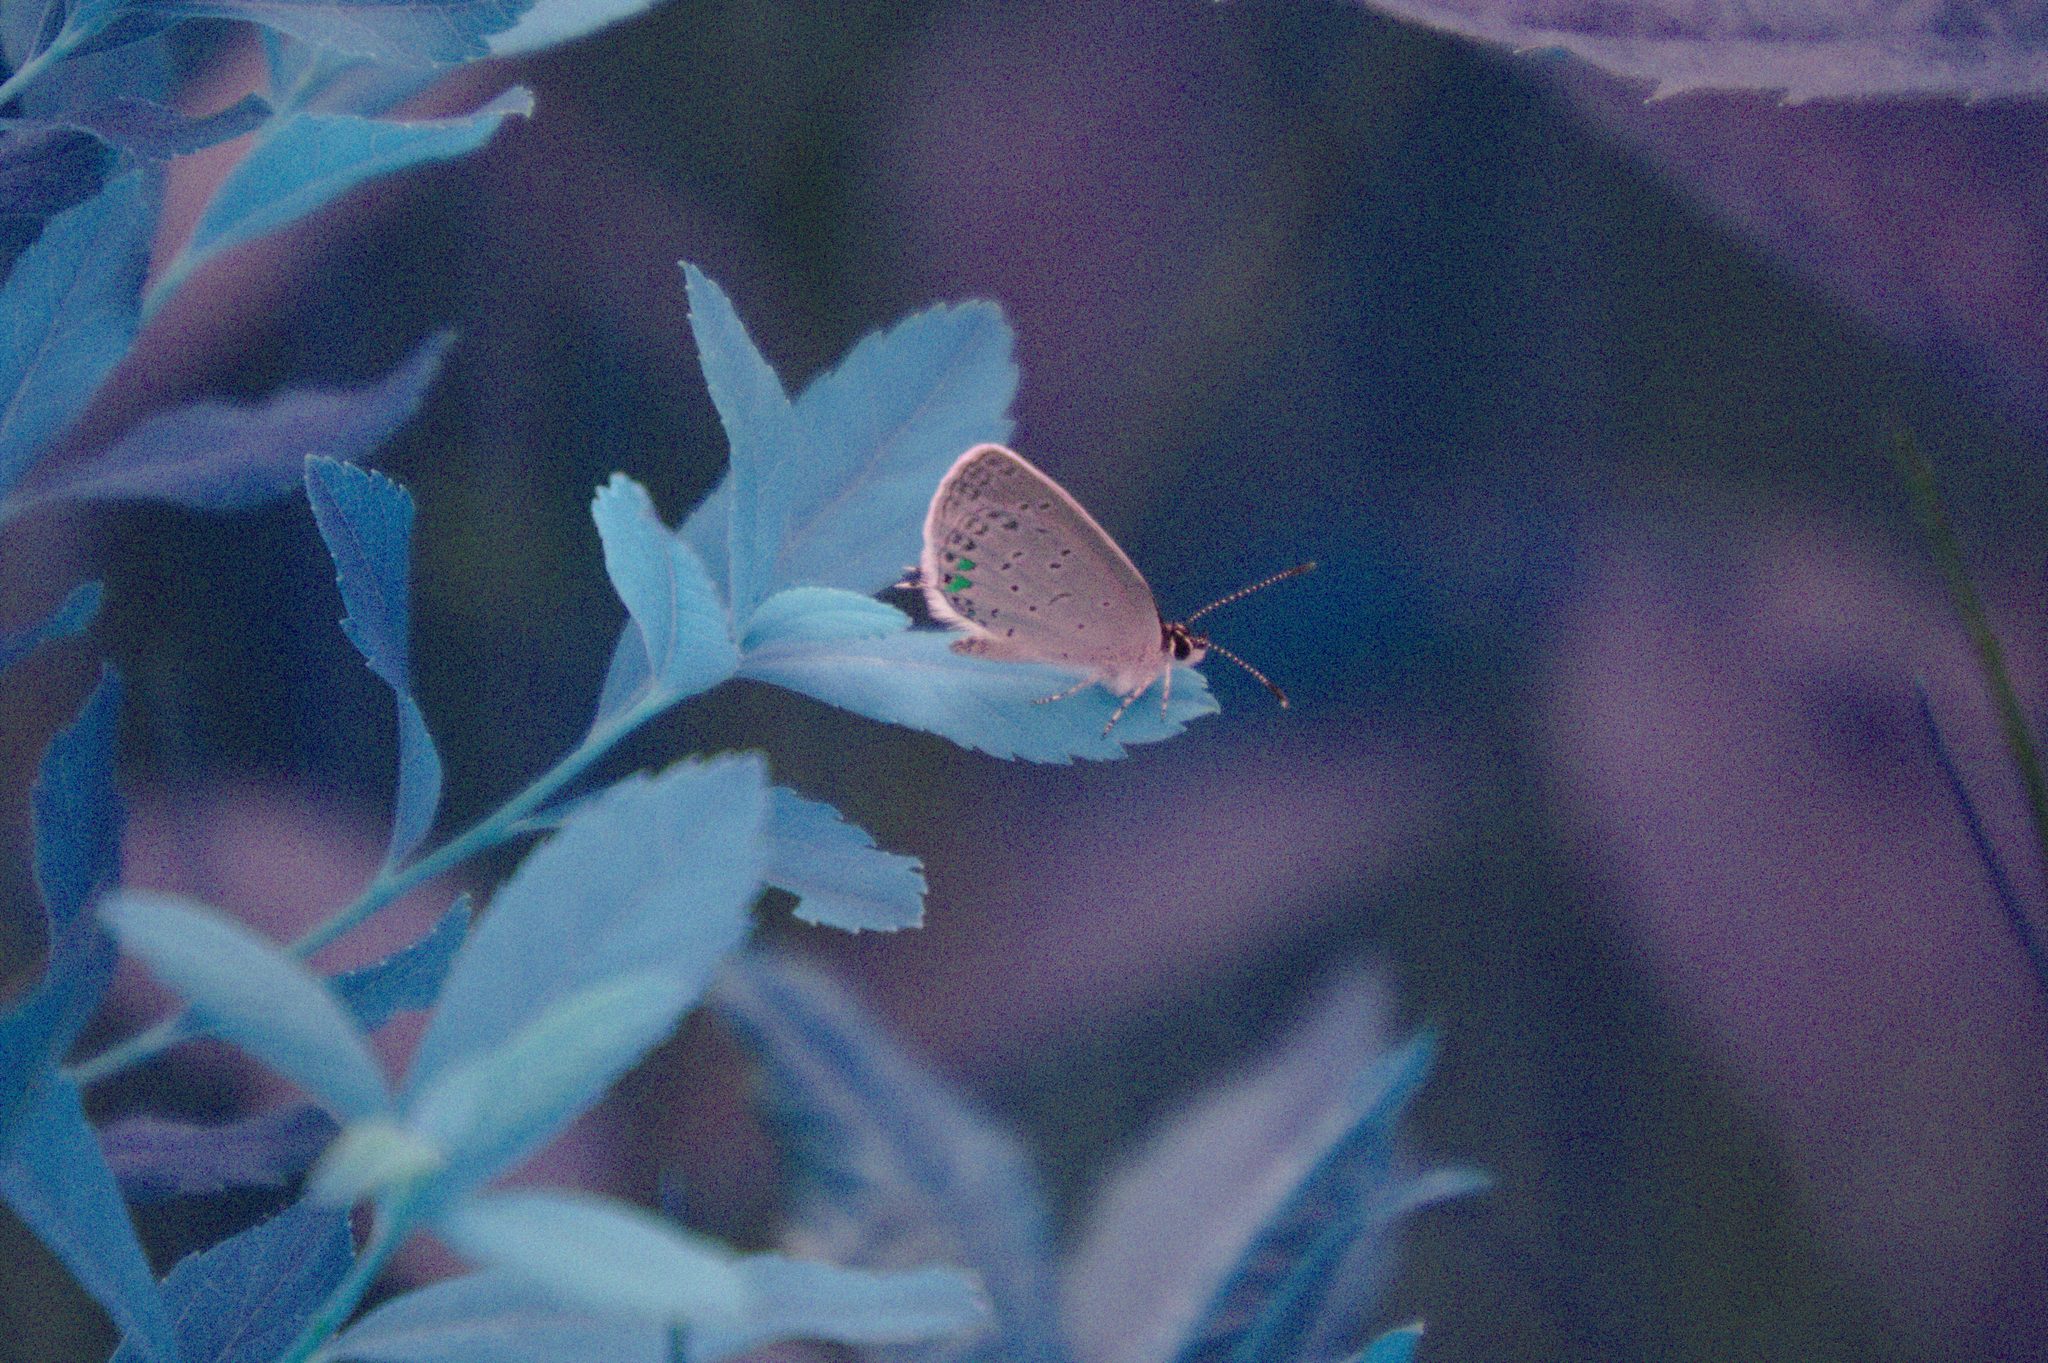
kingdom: Animalia
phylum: Arthropoda
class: Insecta
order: Lepidoptera
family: Lycaenidae
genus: Elkalyce
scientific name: Elkalyce comyntas
